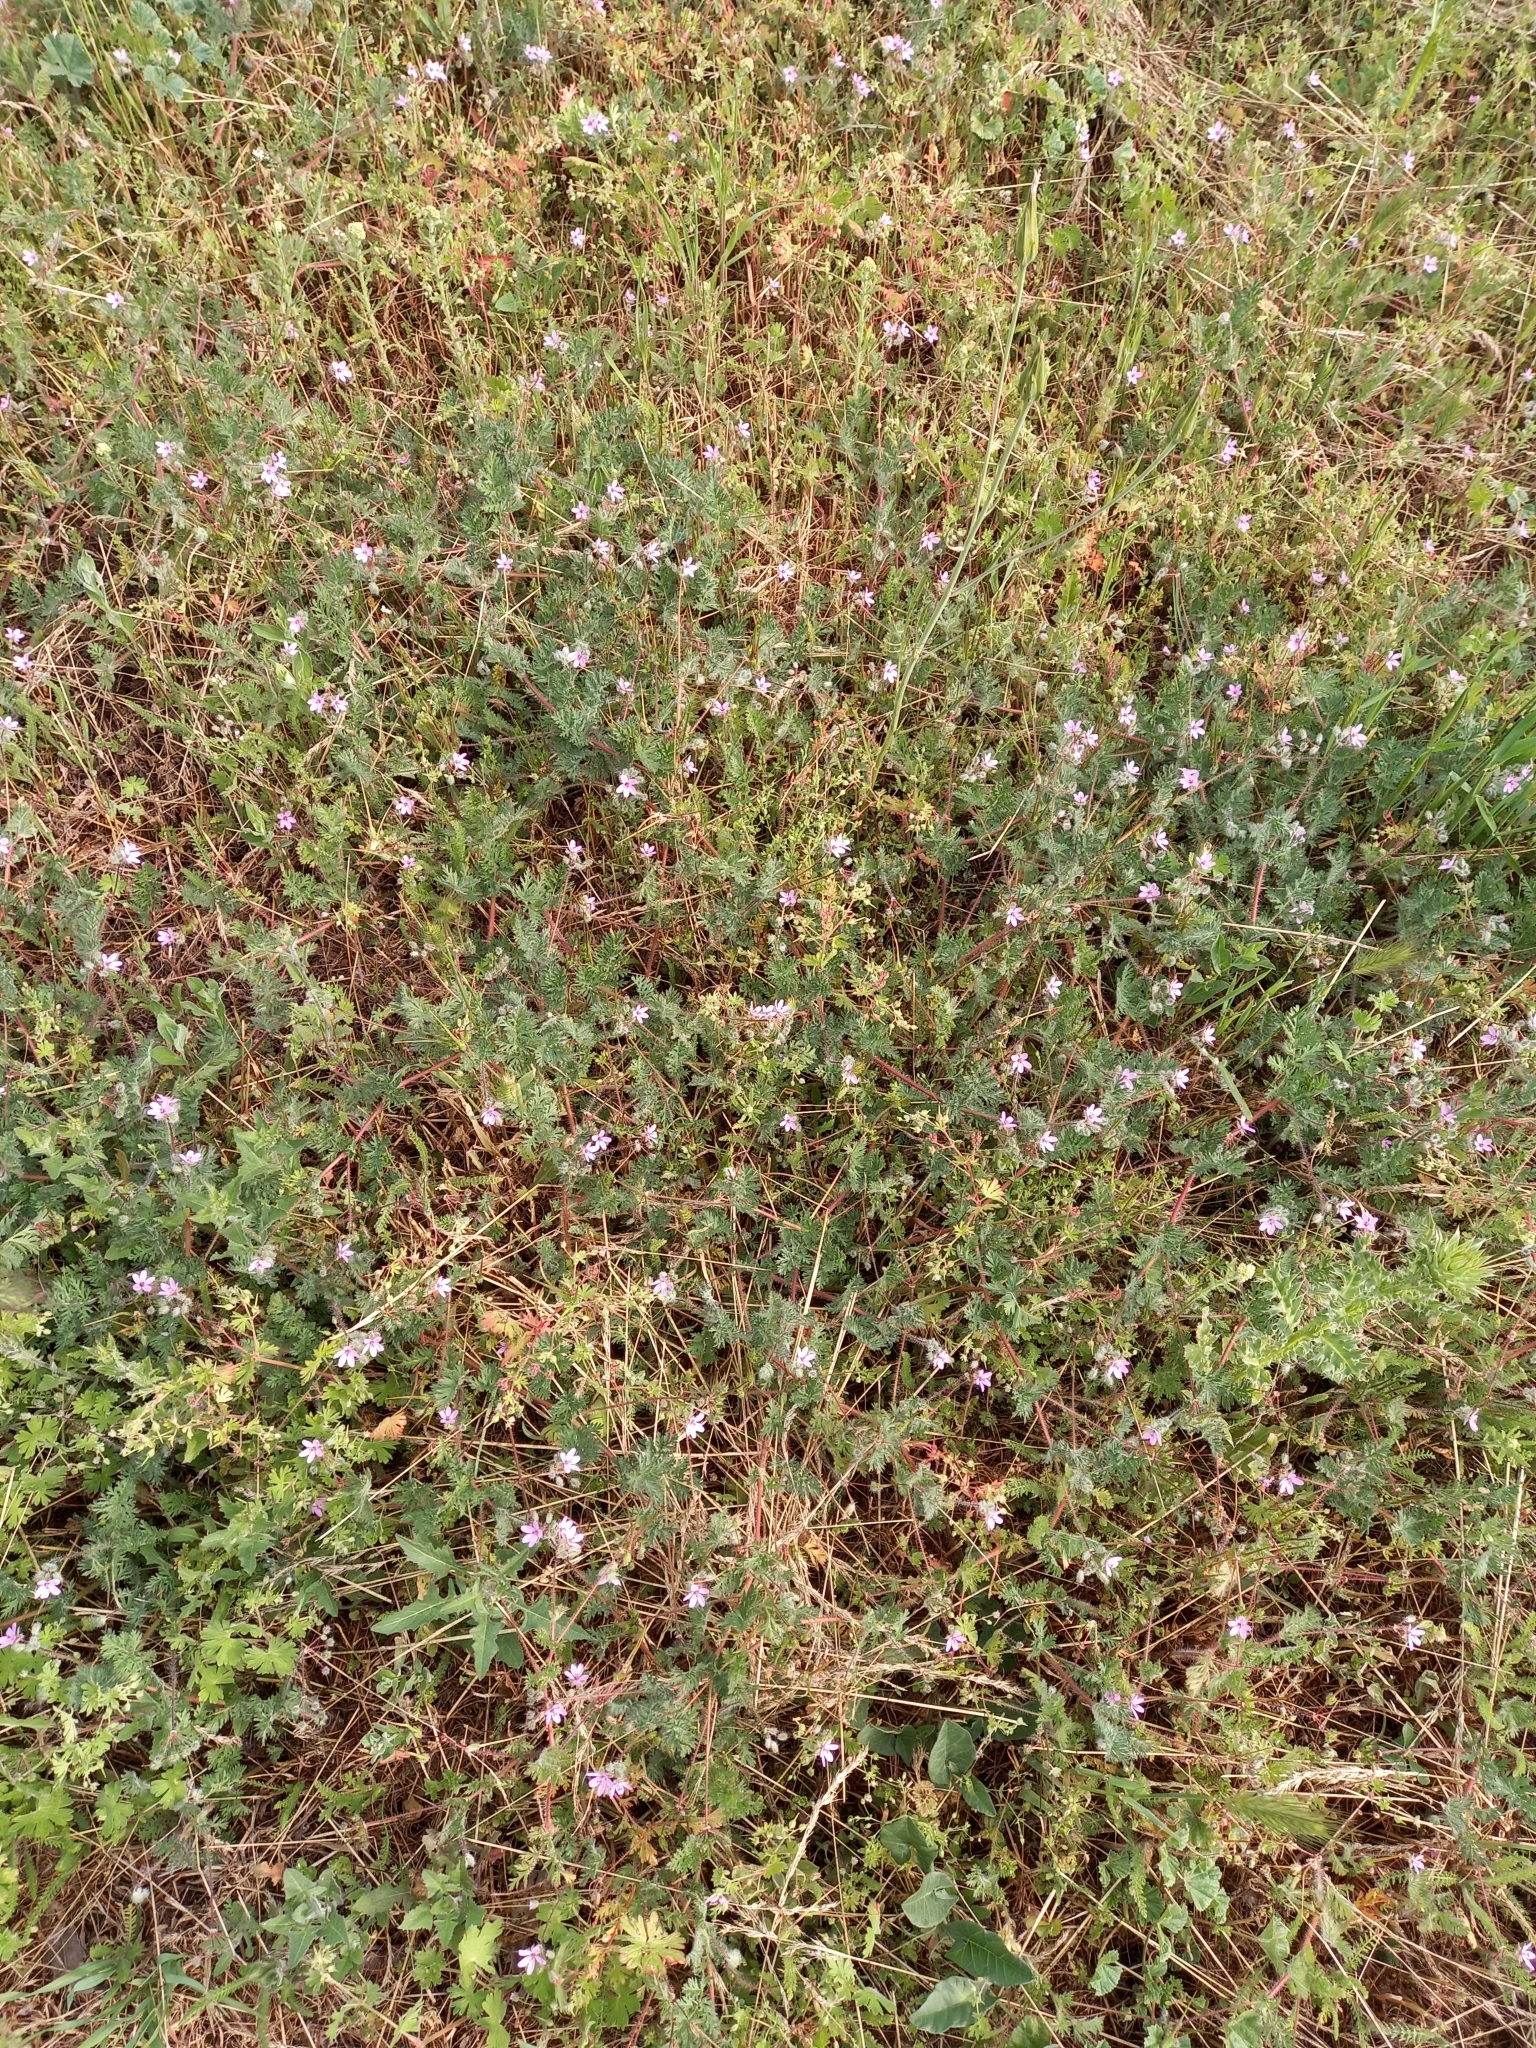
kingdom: Plantae
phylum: Tracheophyta
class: Magnoliopsida
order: Geraniales
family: Geraniaceae
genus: Erodium
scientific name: Erodium cicutarium
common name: Common stork's-bill
